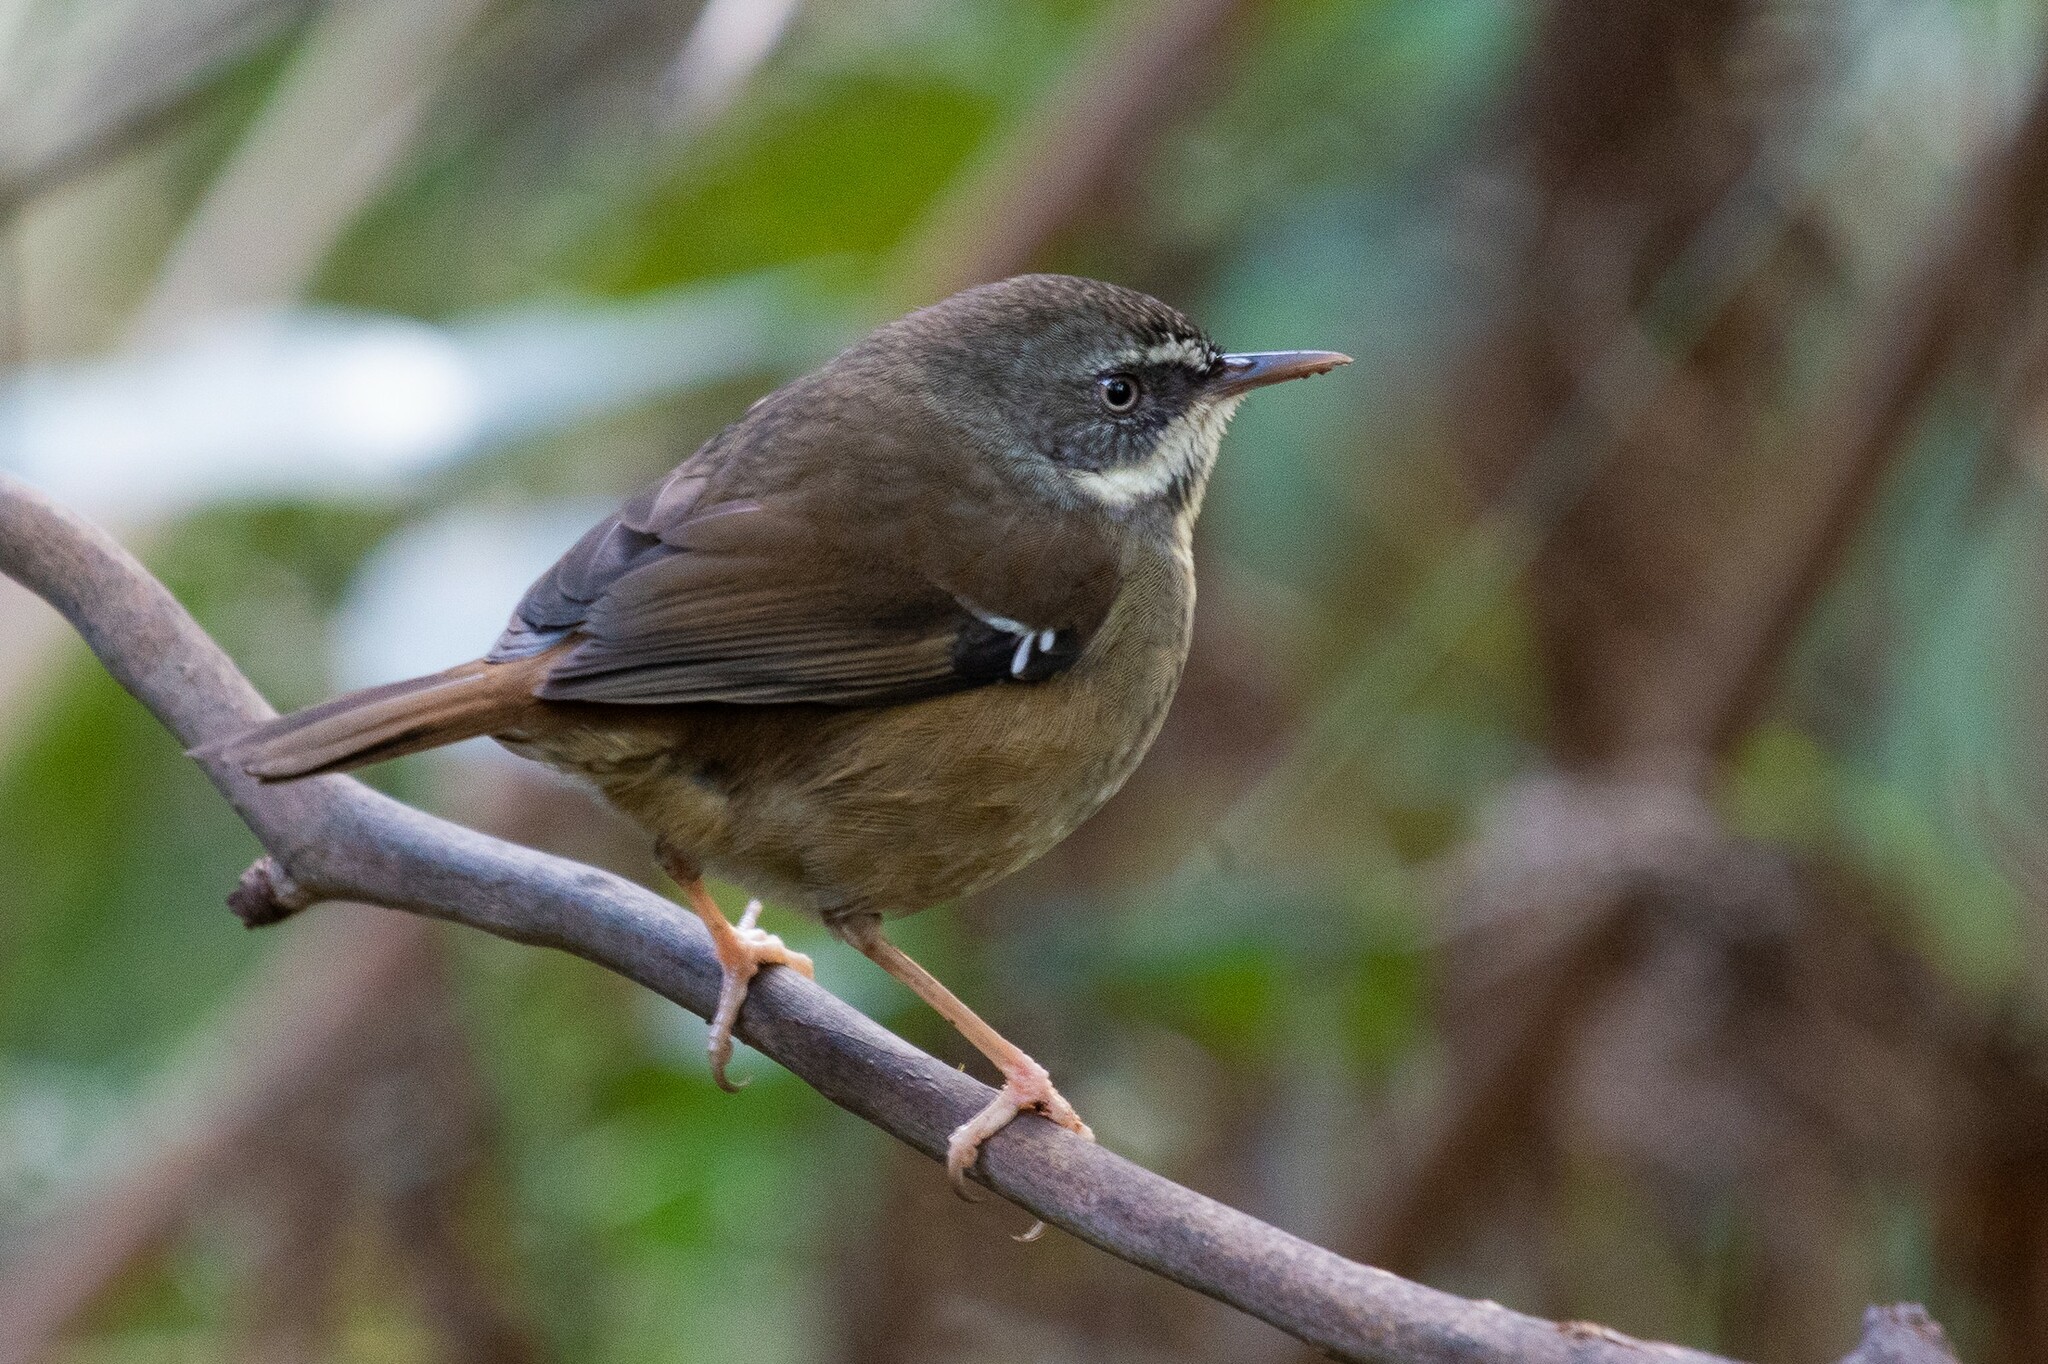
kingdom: Animalia
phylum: Chordata
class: Aves
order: Passeriformes
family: Acanthizidae
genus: Sericornis
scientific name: Sericornis frontalis
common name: White-browed scrubwren
